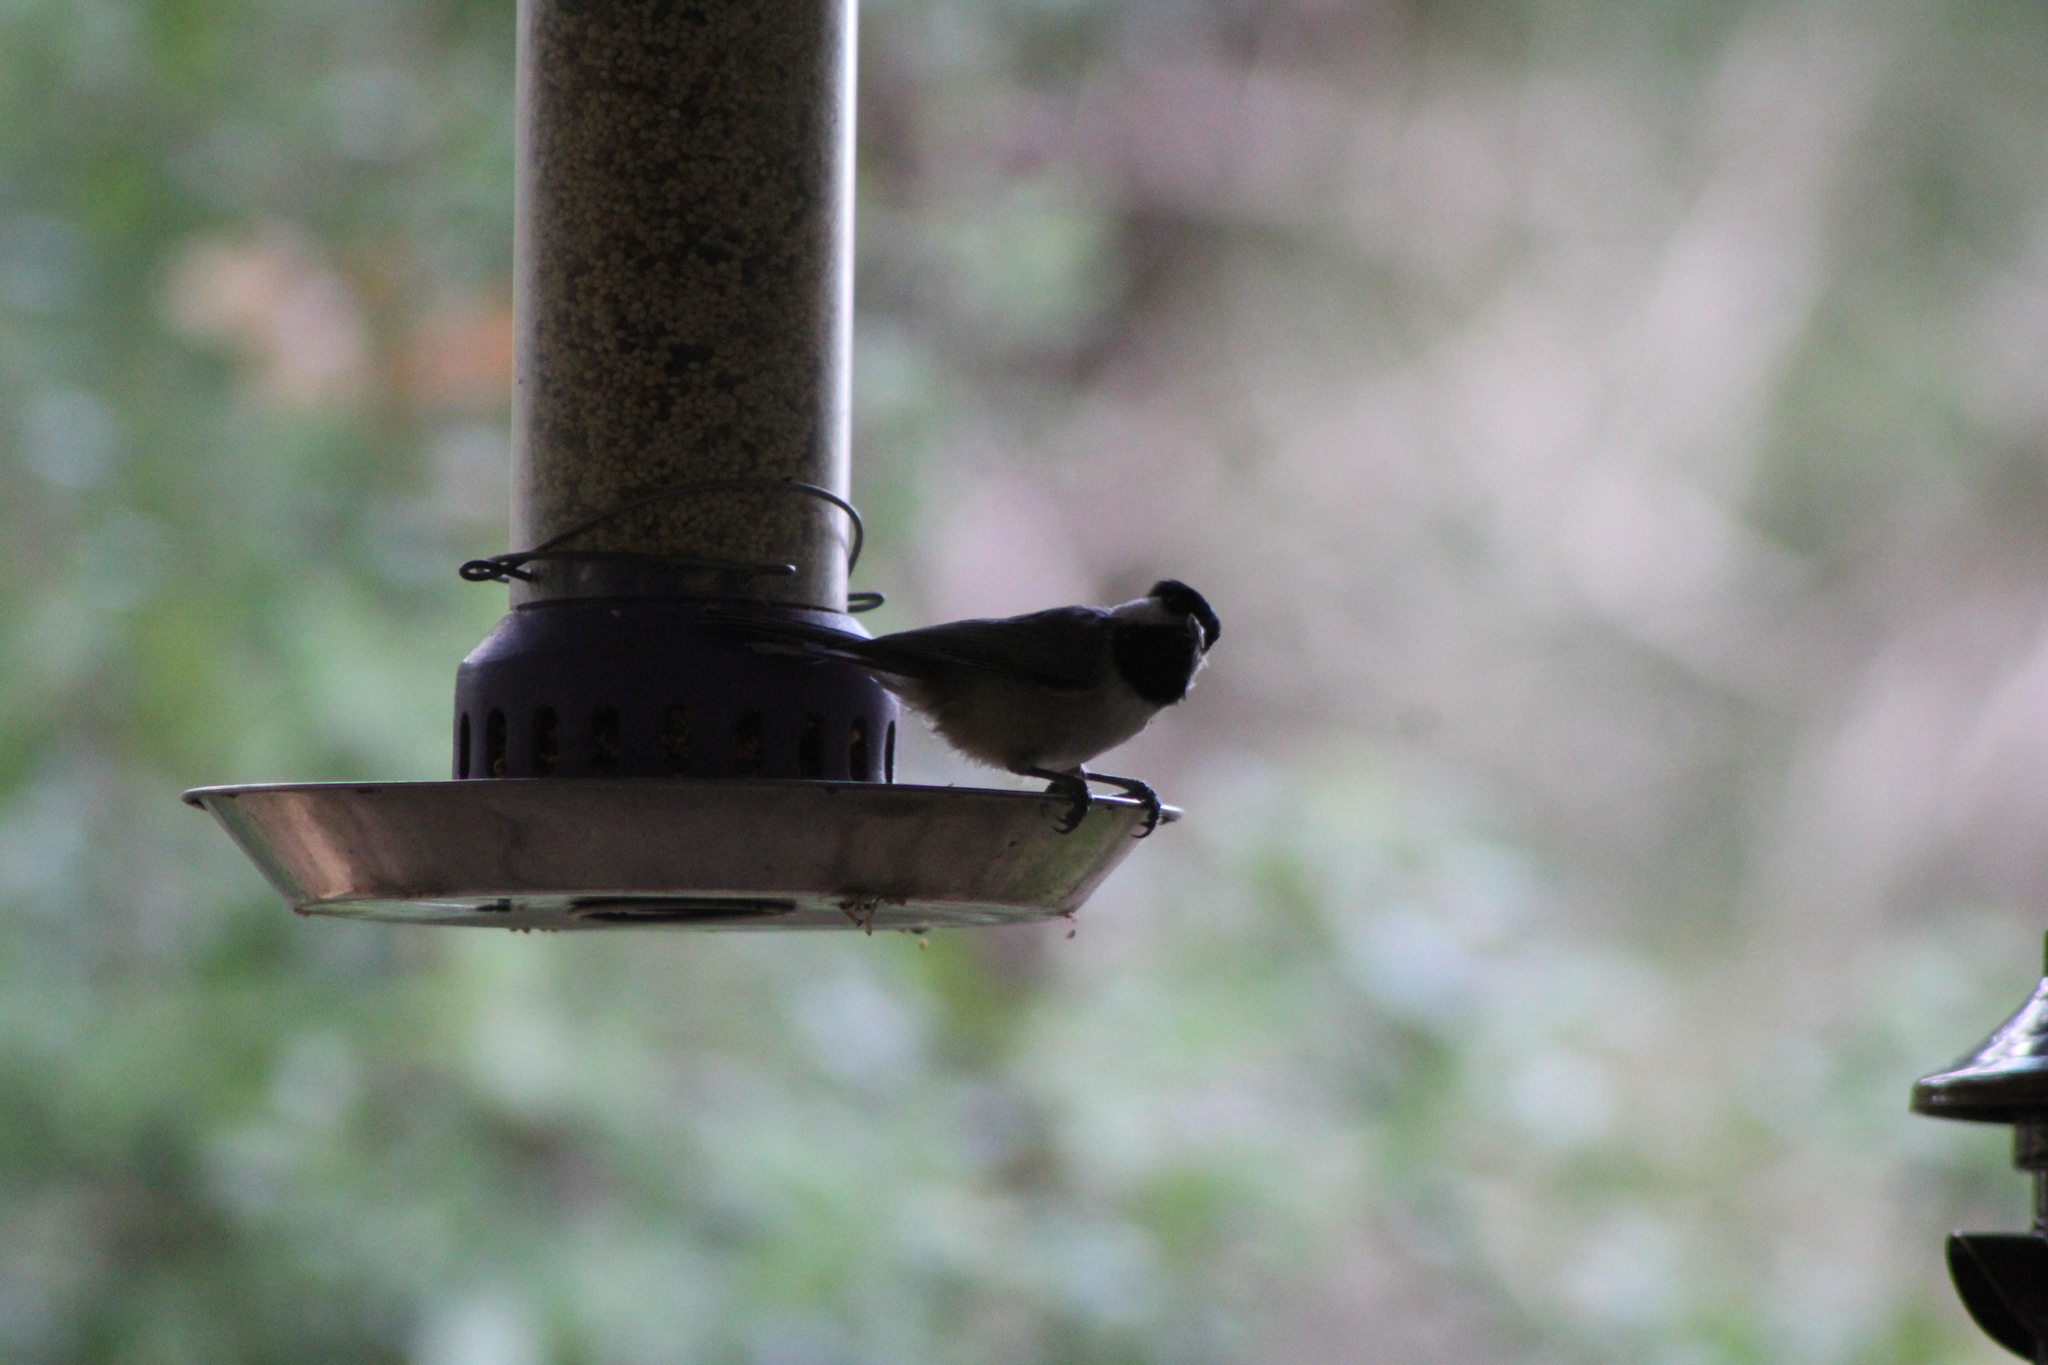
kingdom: Animalia
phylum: Chordata
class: Aves
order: Passeriformes
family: Paridae
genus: Poecile
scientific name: Poecile carolinensis
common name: Carolina chickadee
